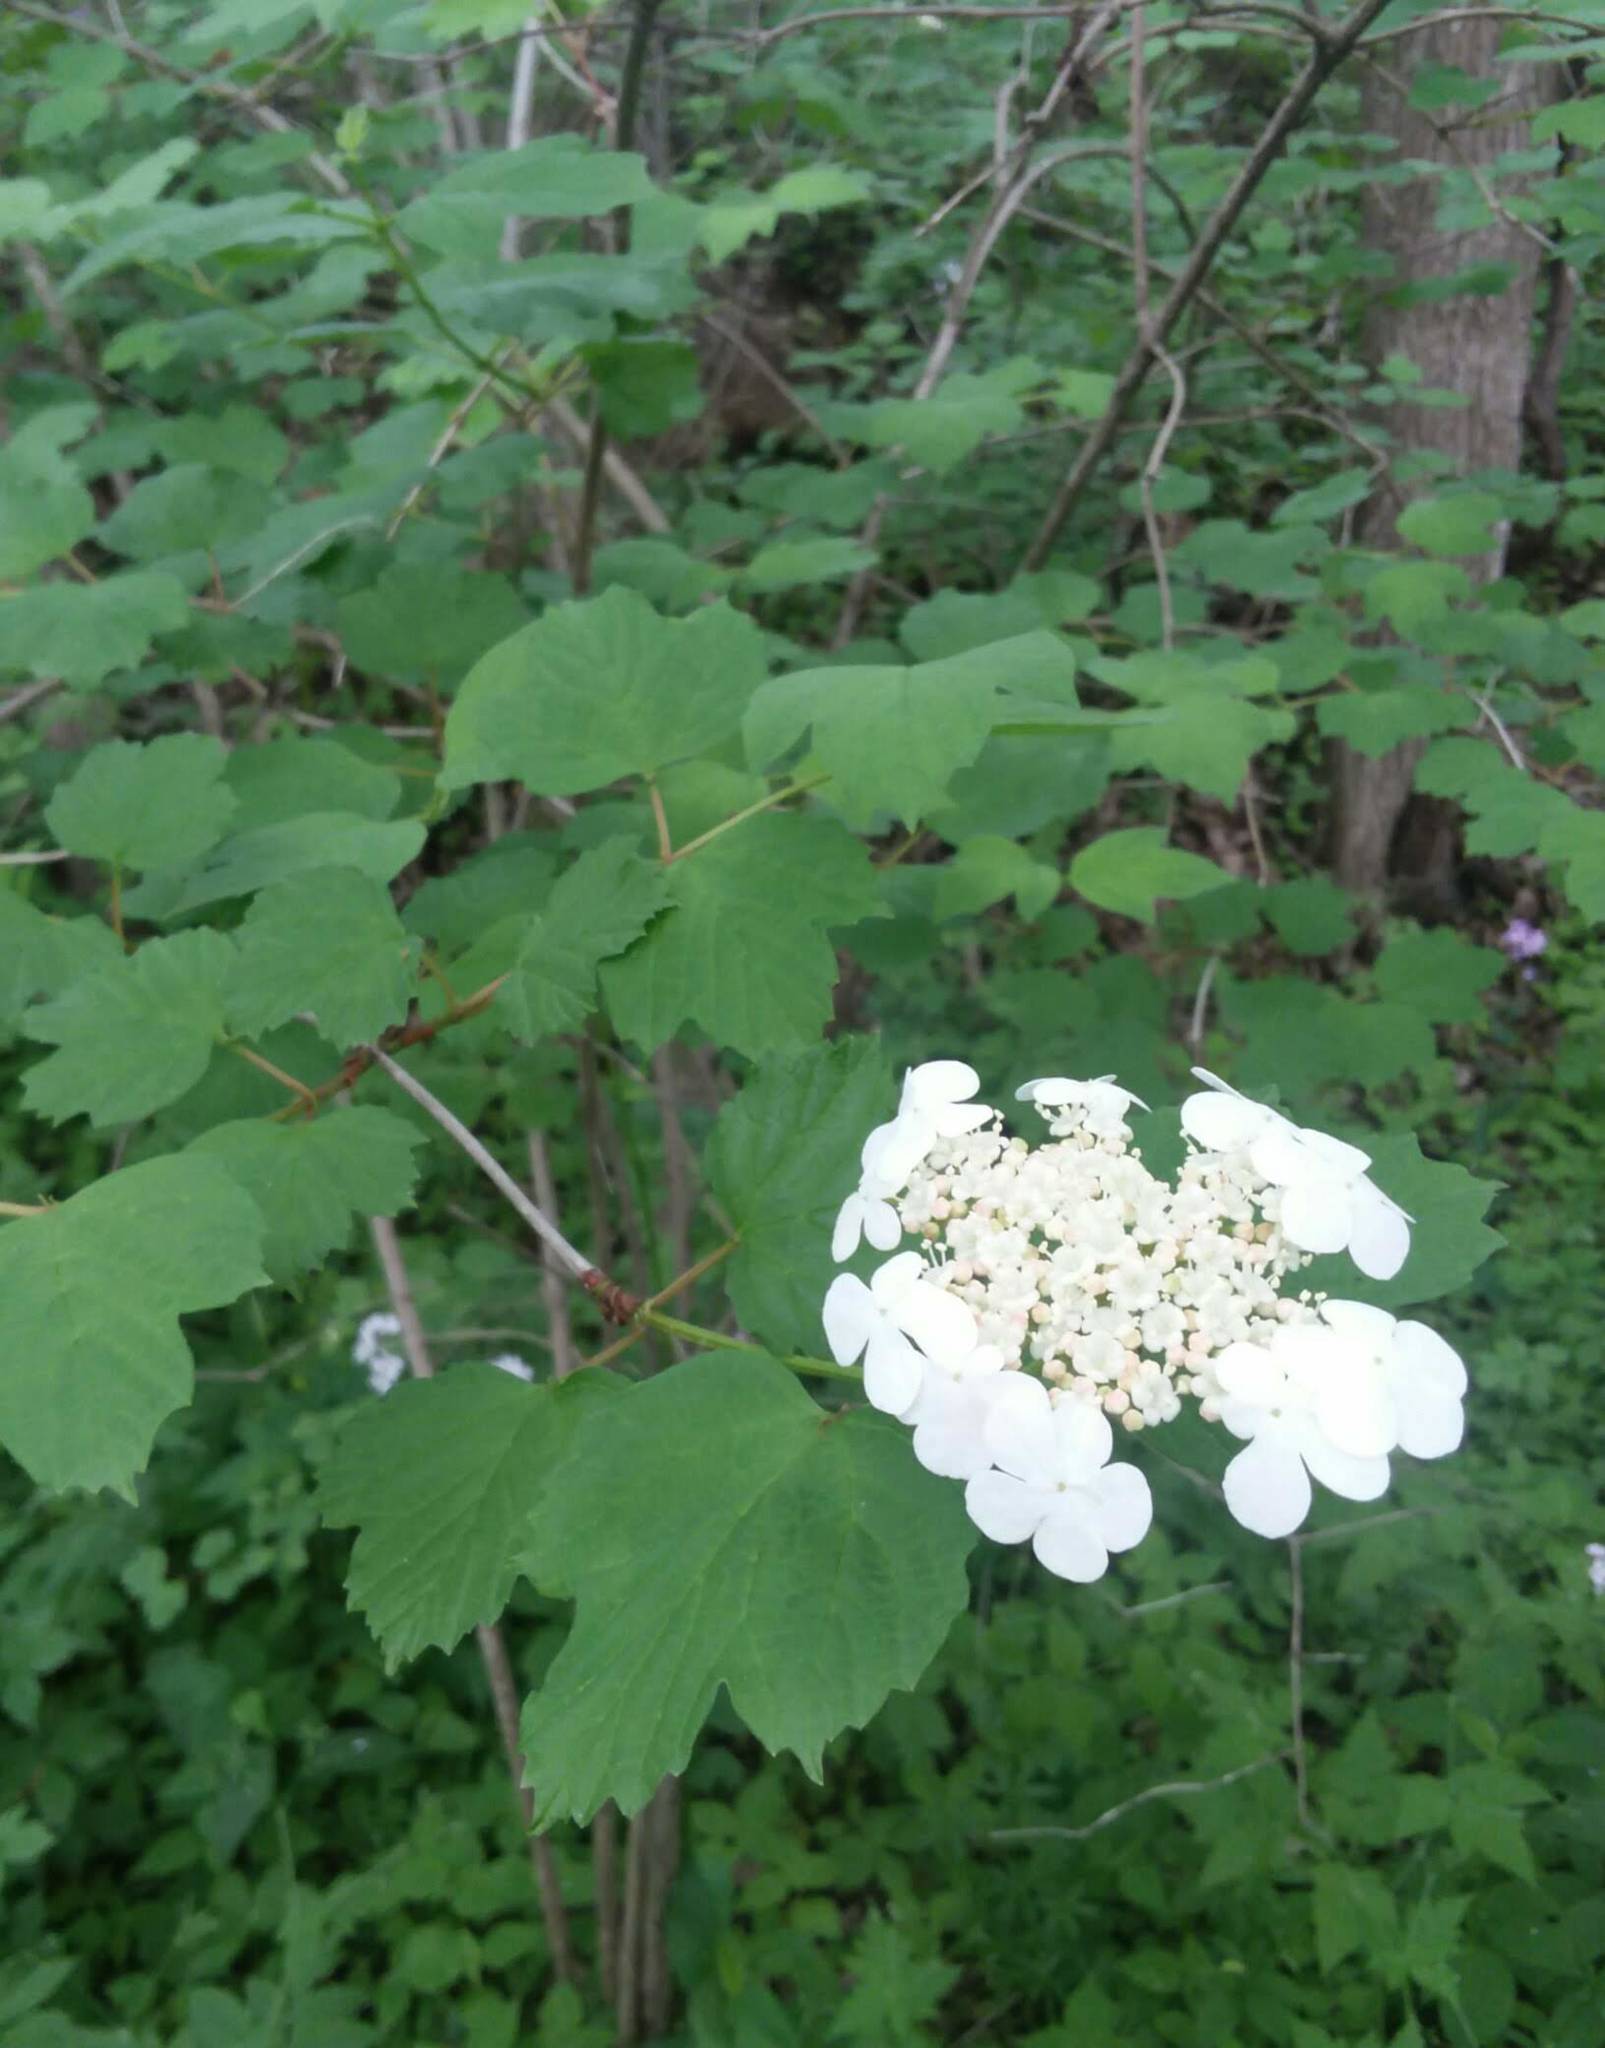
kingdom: Plantae
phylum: Tracheophyta
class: Magnoliopsida
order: Dipsacales
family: Viburnaceae
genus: Viburnum
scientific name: Viburnum opulus
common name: Guelder-rose
